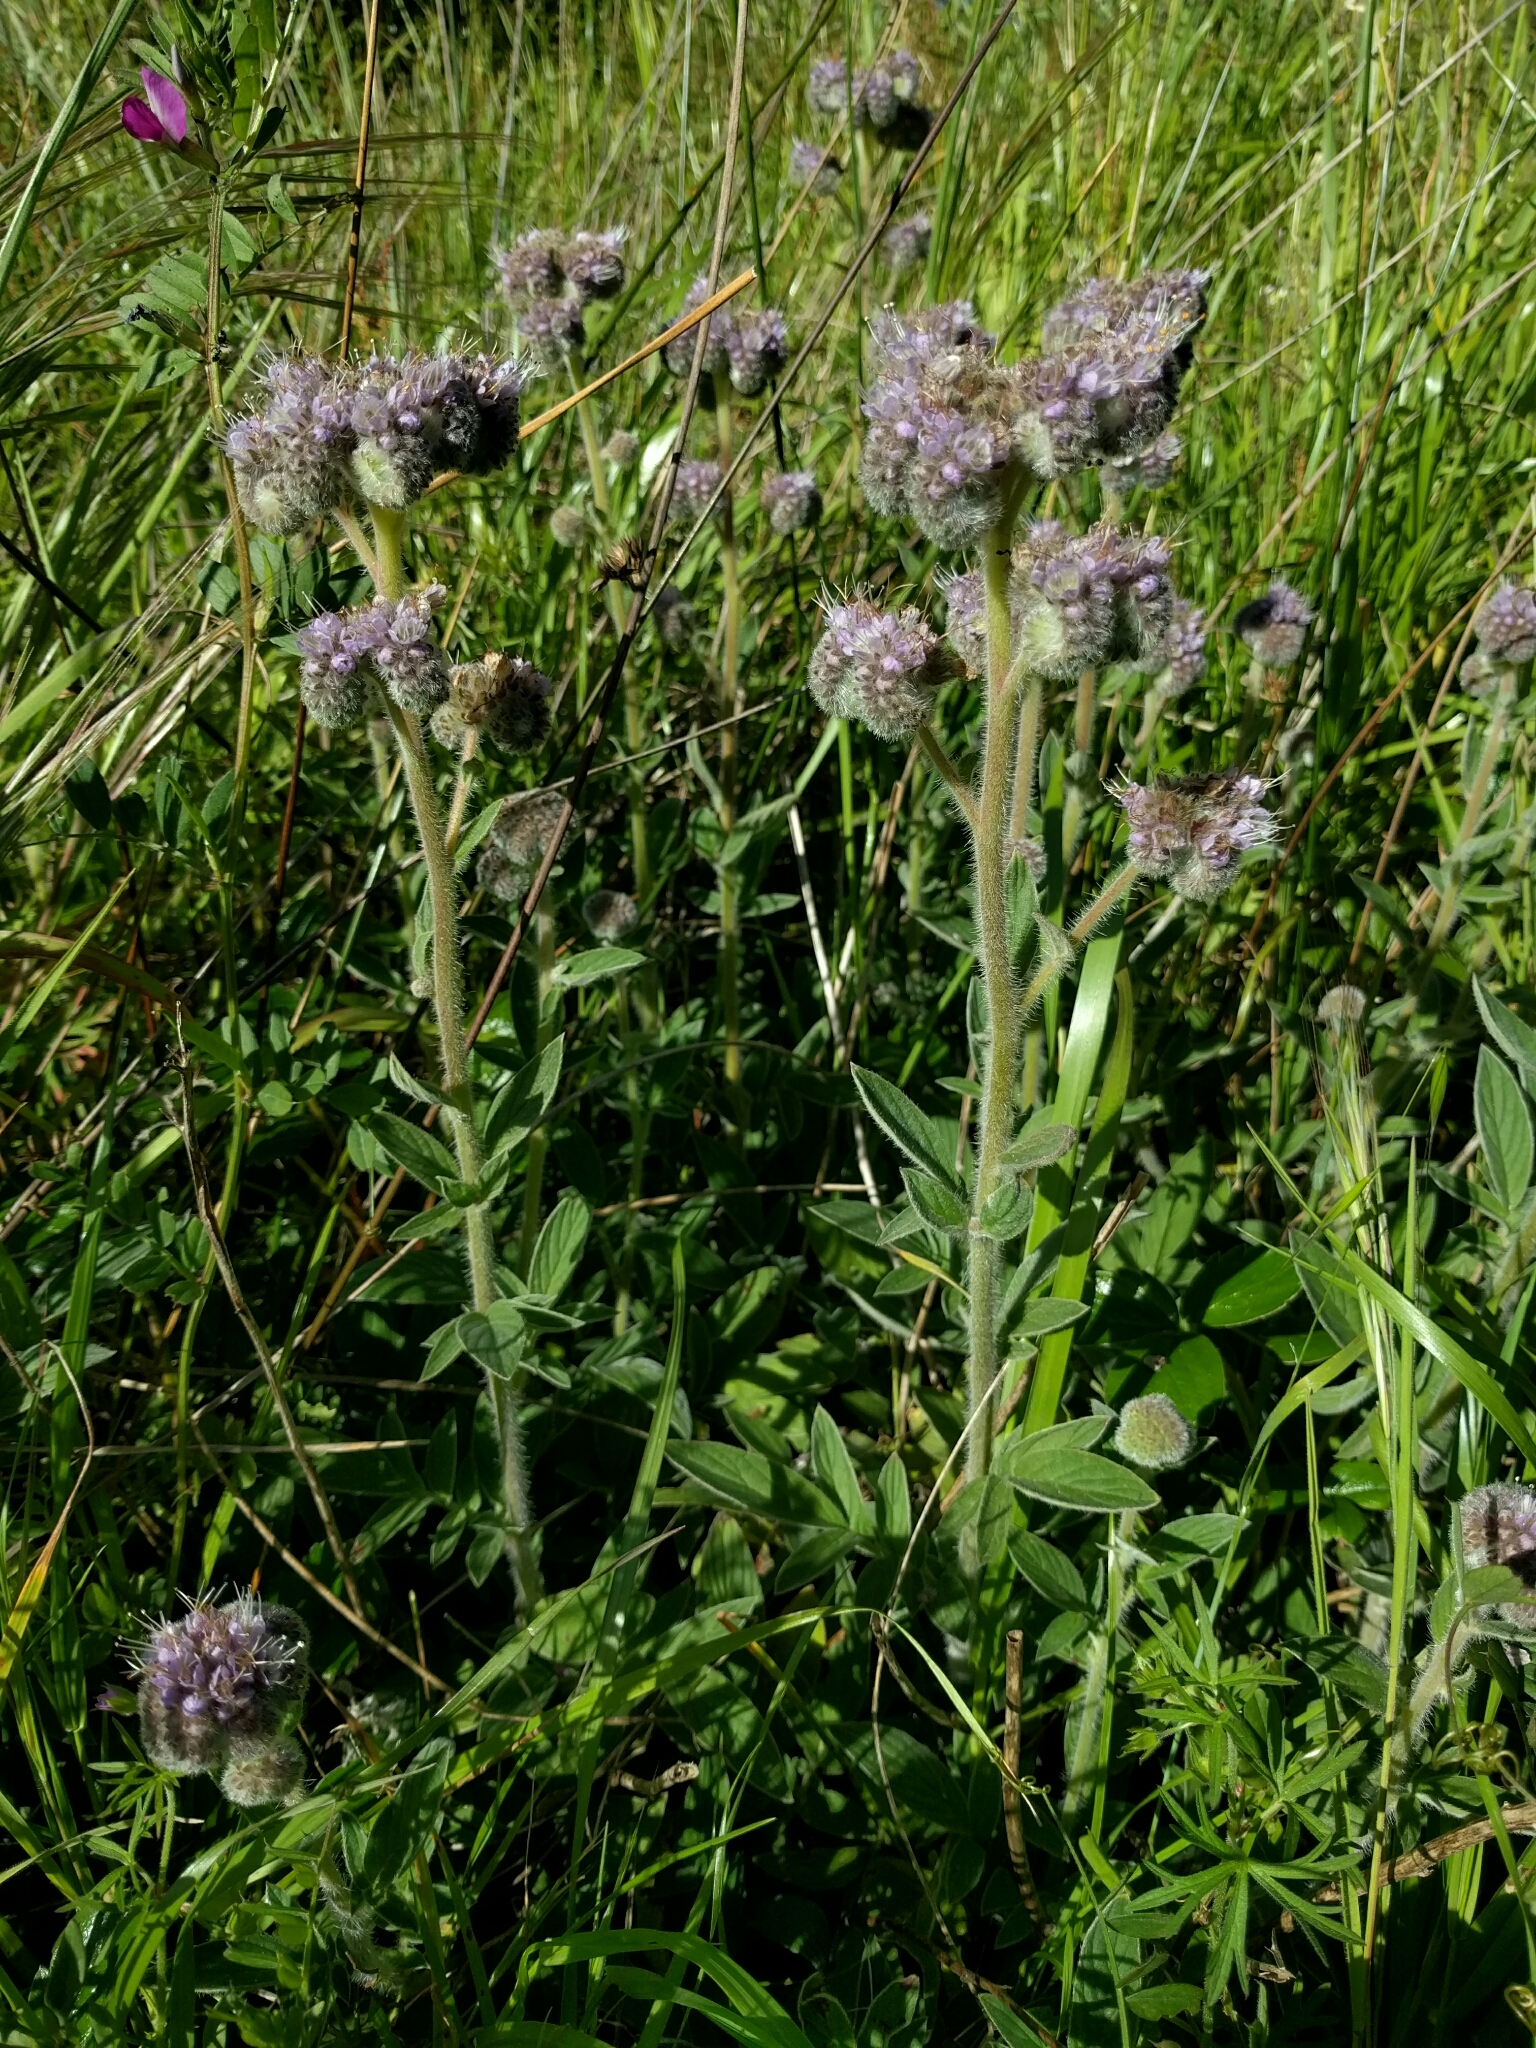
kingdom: Plantae
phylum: Tracheophyta
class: Magnoliopsida
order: Boraginales
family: Hydrophyllaceae
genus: Phacelia
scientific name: Phacelia californica
